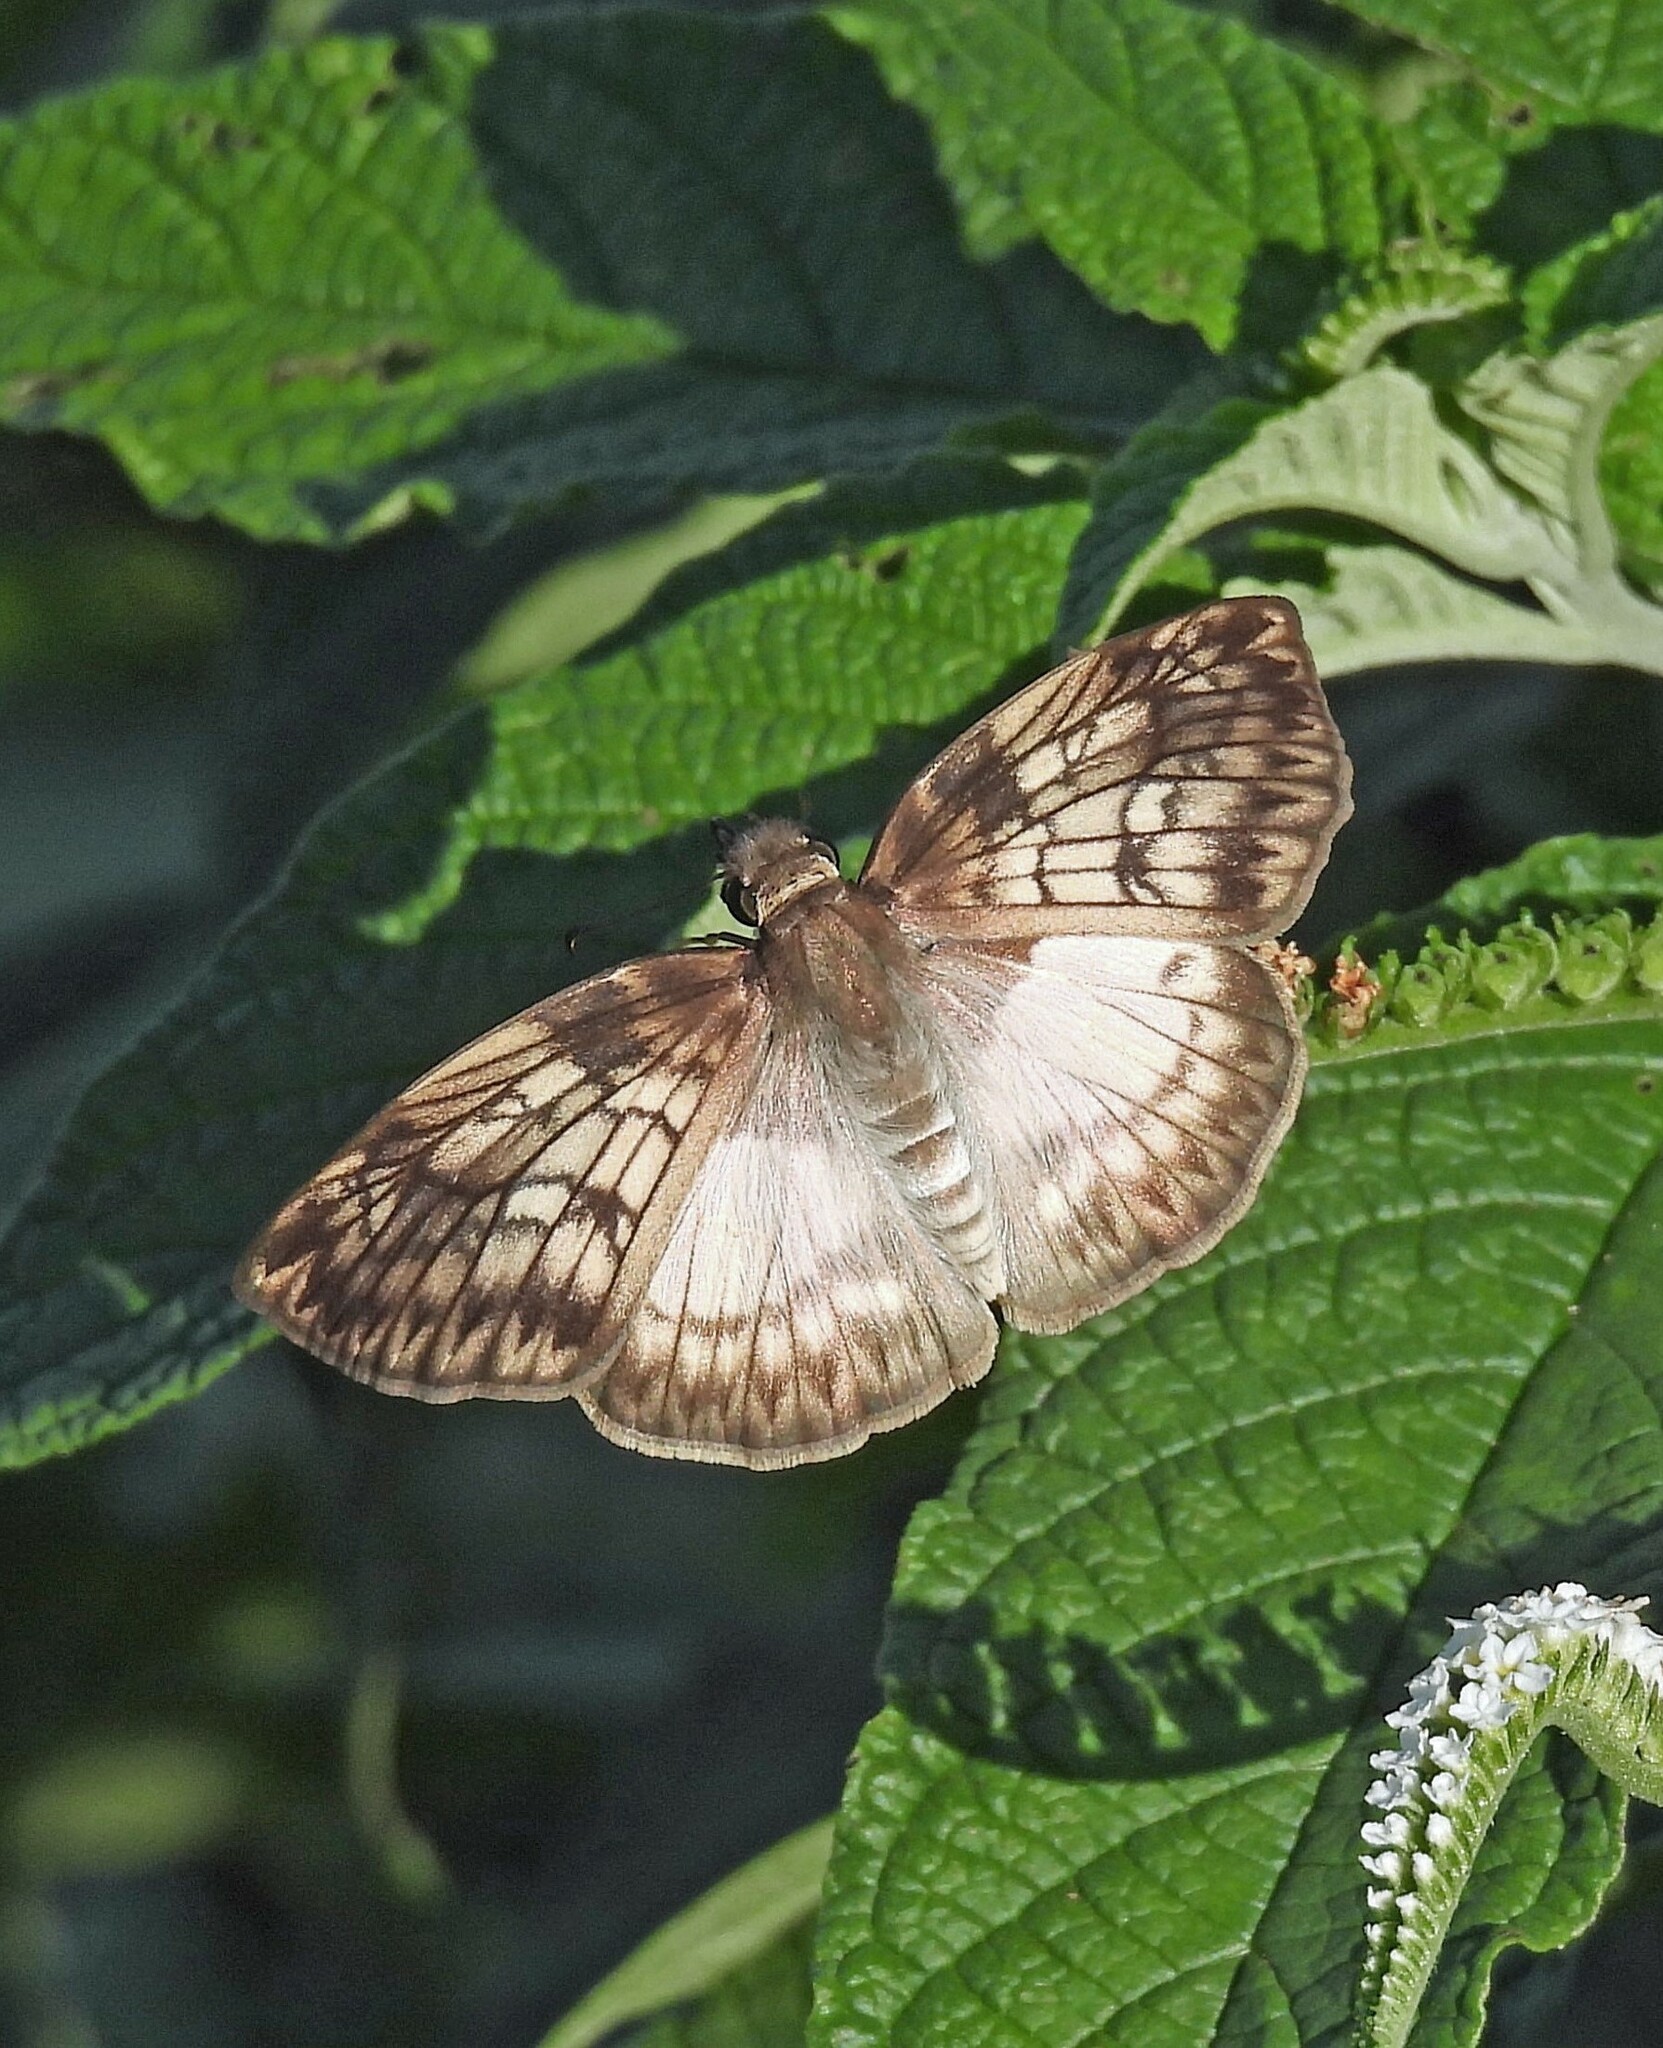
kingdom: Animalia
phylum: Arthropoda
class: Insecta
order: Lepidoptera
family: Hesperiidae
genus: Mylon
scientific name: Mylon maimon
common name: Common mylon
